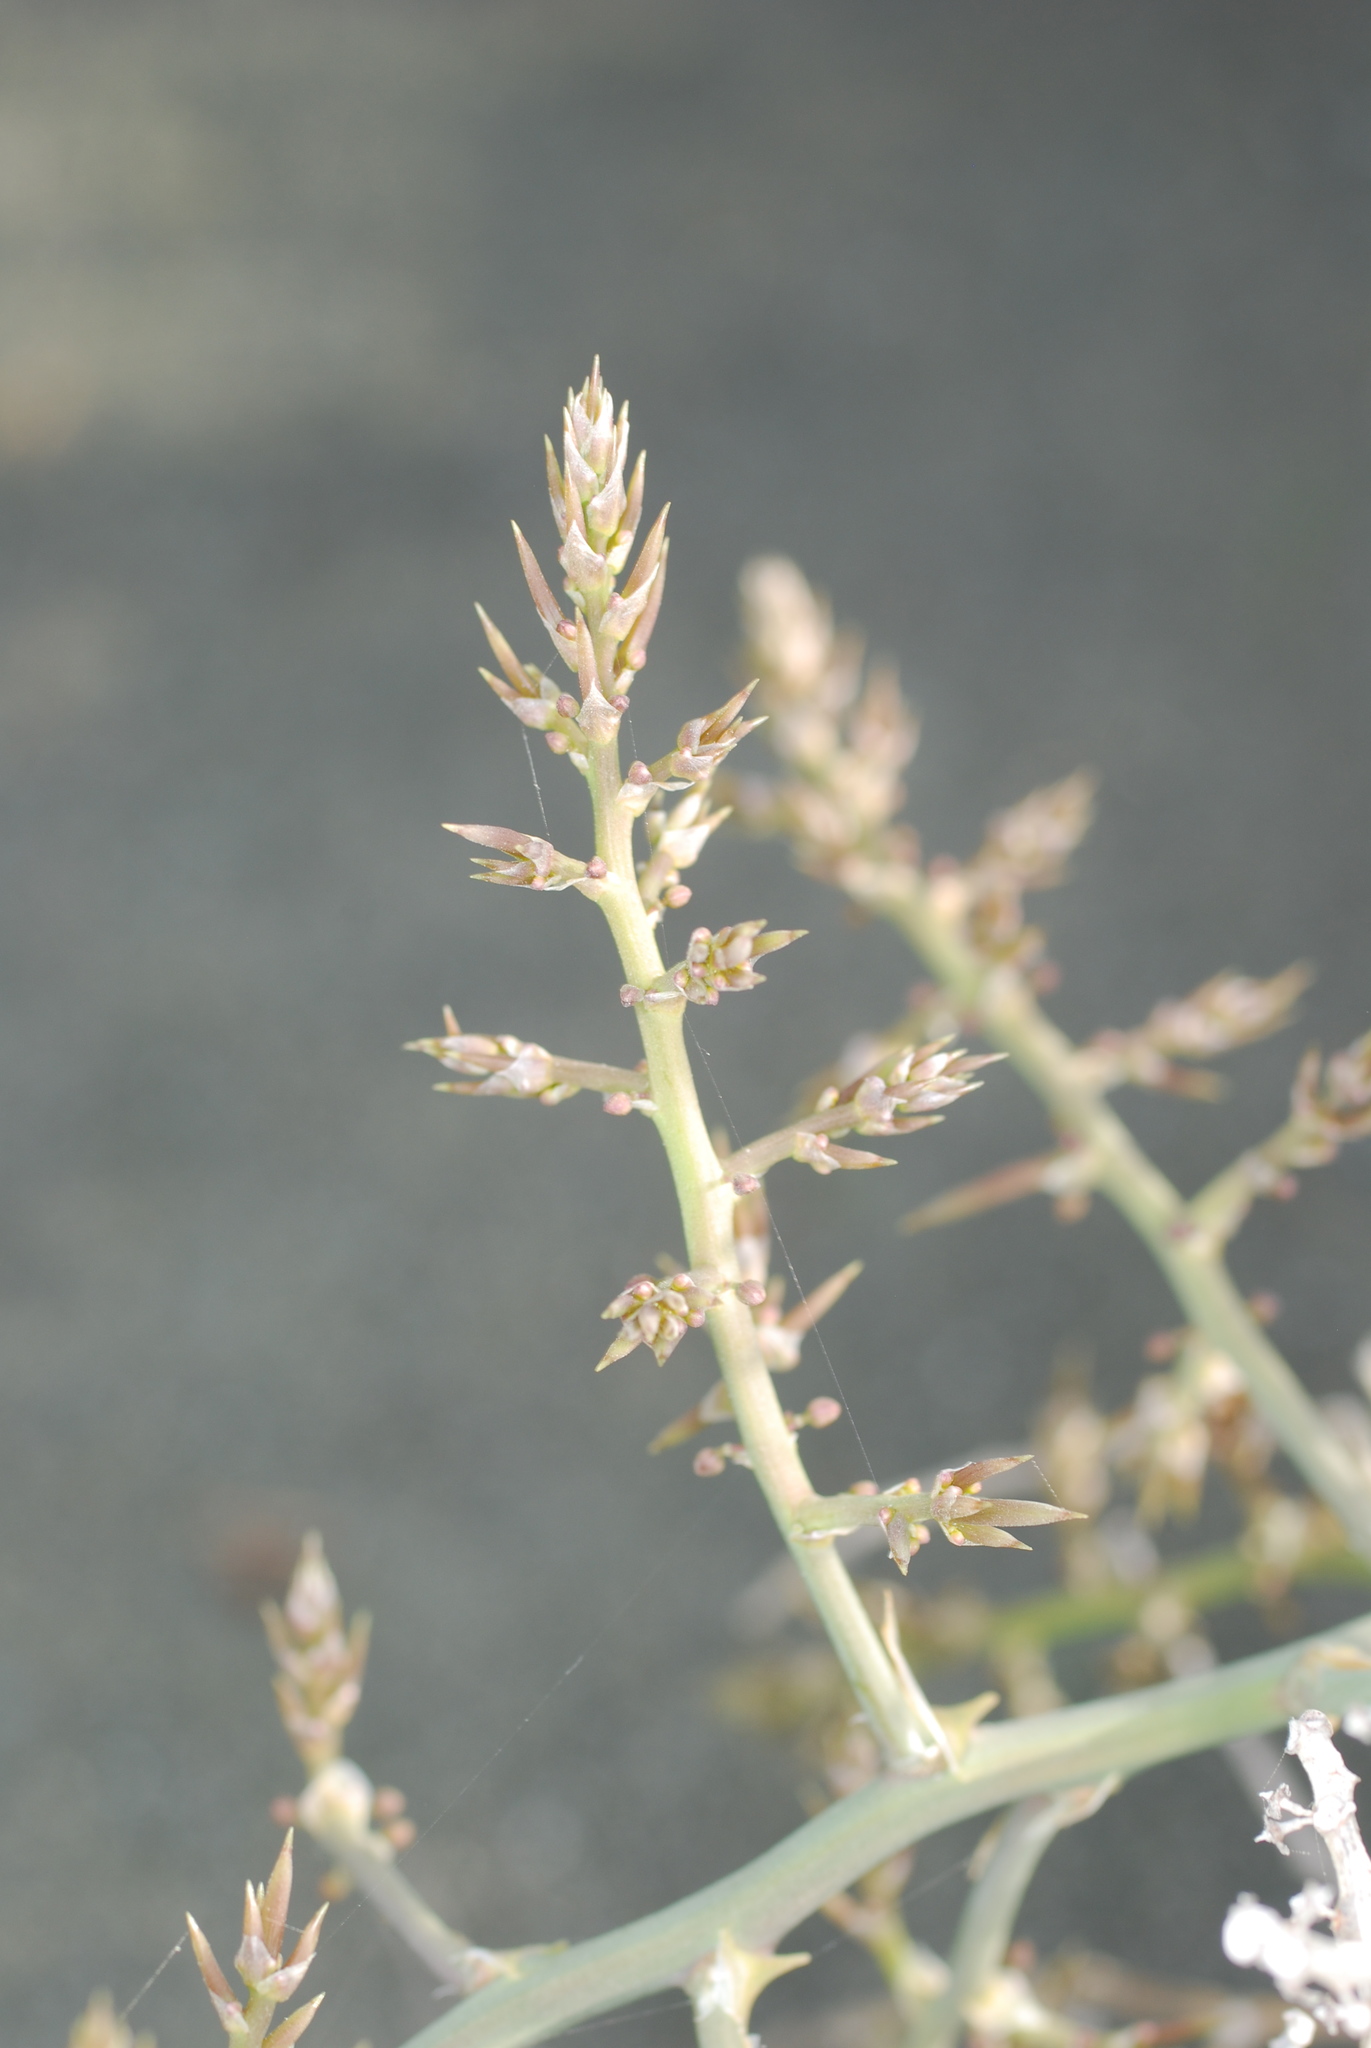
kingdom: Plantae
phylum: Tracheophyta
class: Liliopsida
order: Asparagales
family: Asparagaceae
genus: Asparagus
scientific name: Asparagus horridus
